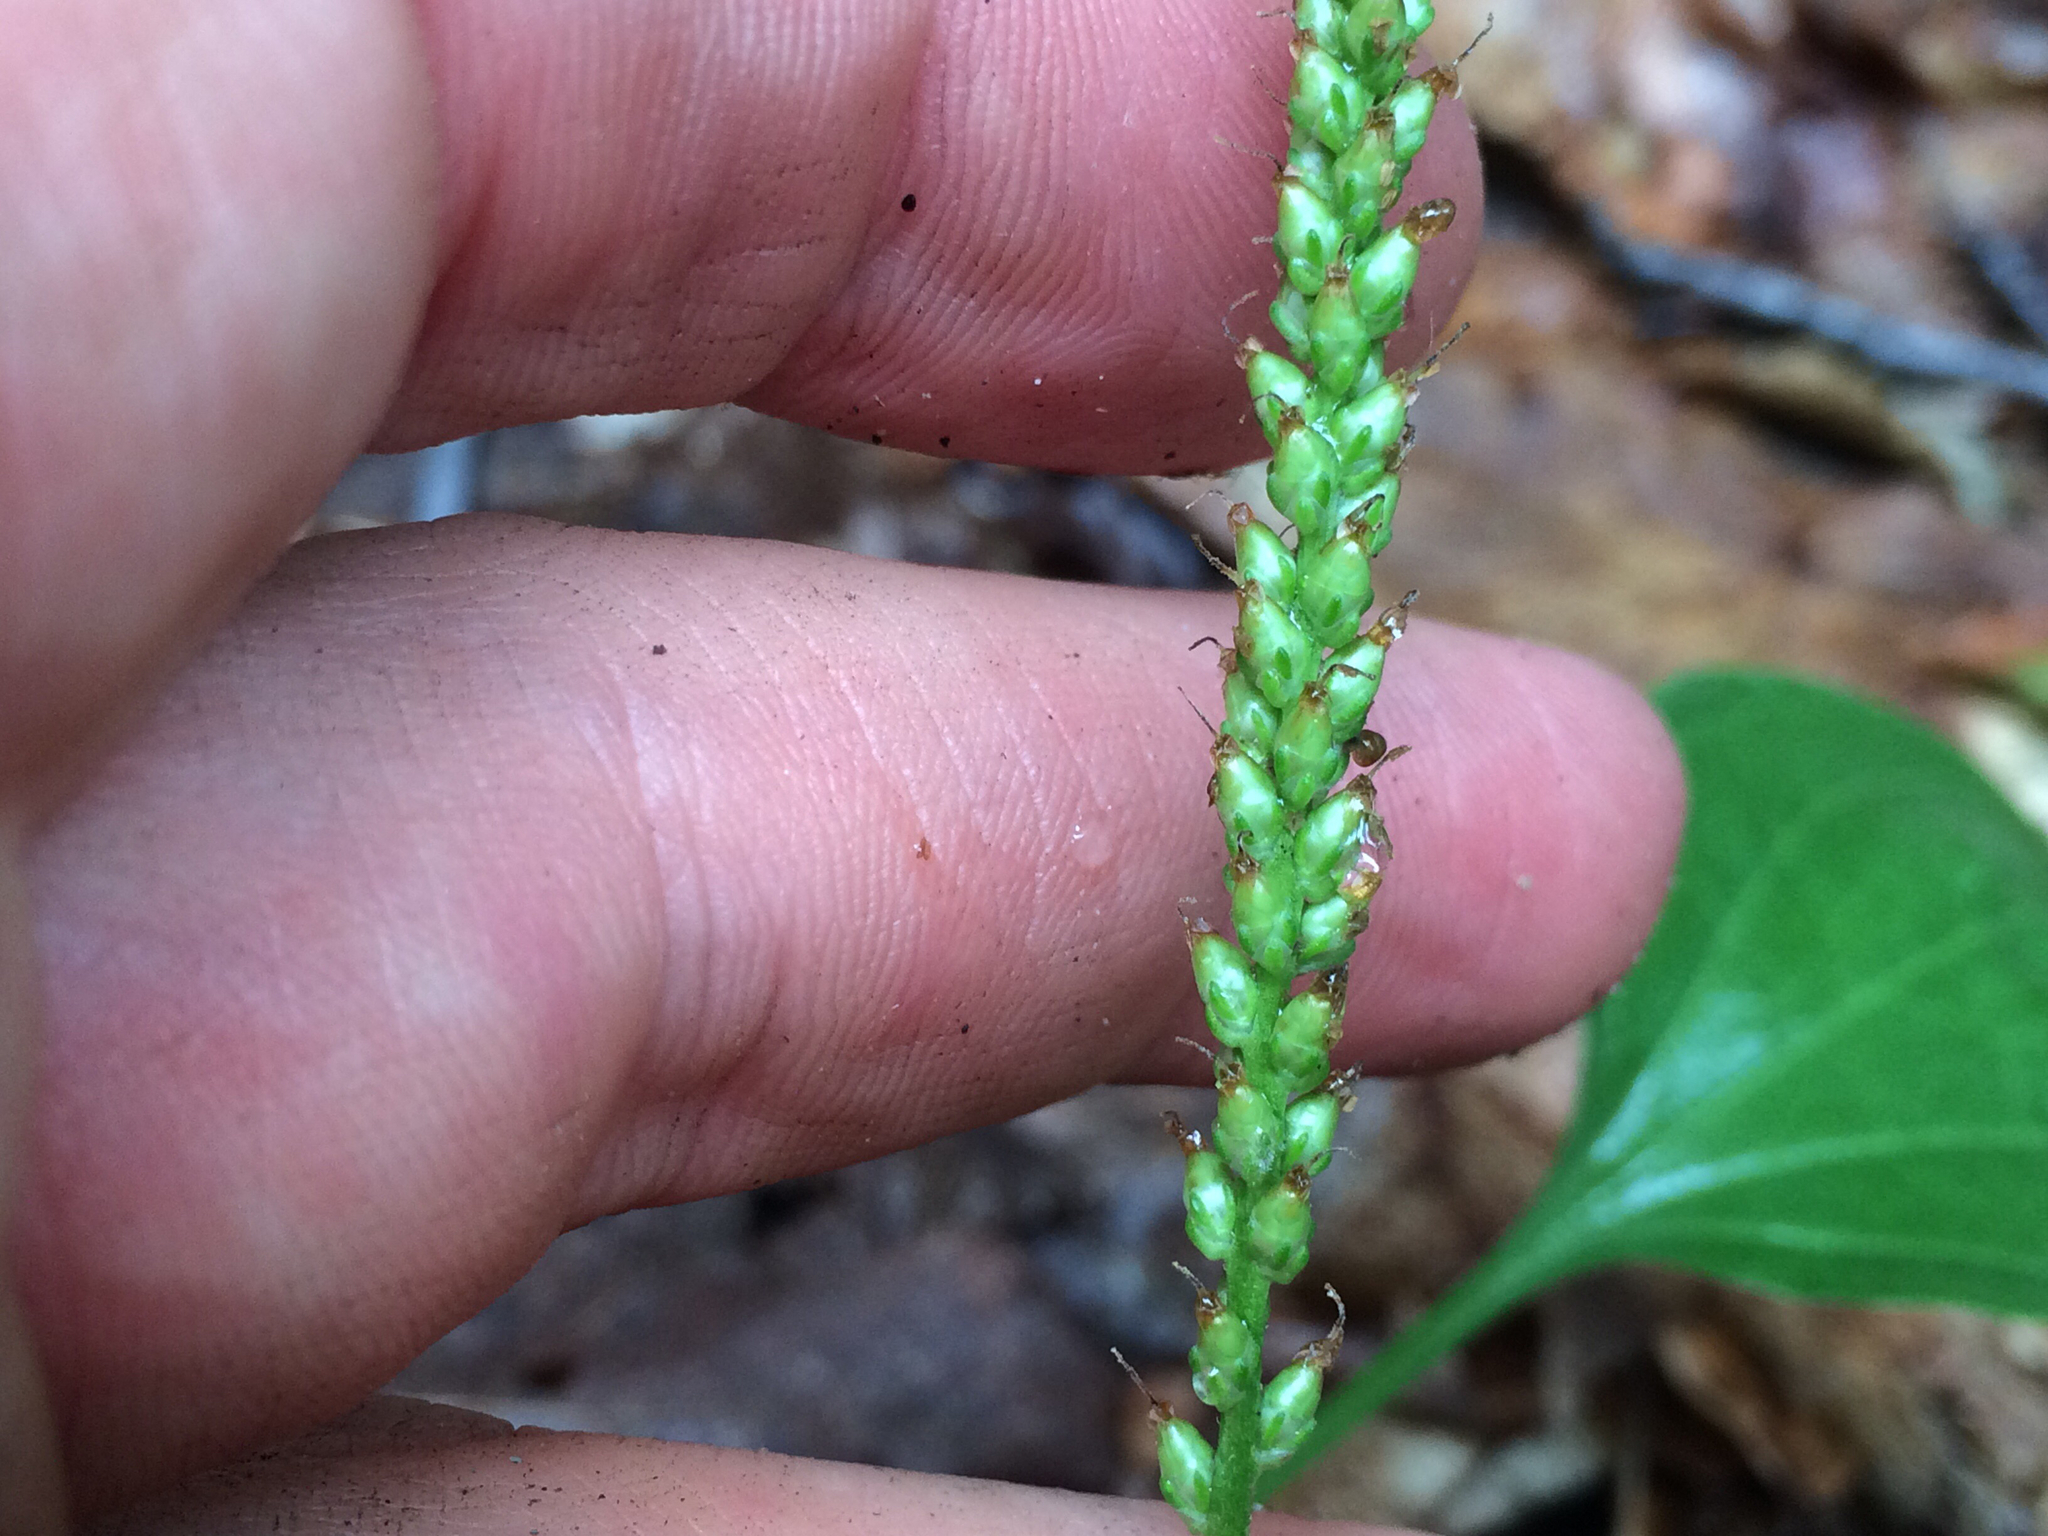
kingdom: Plantae
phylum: Tracheophyta
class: Magnoliopsida
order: Lamiales
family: Plantaginaceae
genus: Plantago
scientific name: Plantago major
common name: Common plantain
